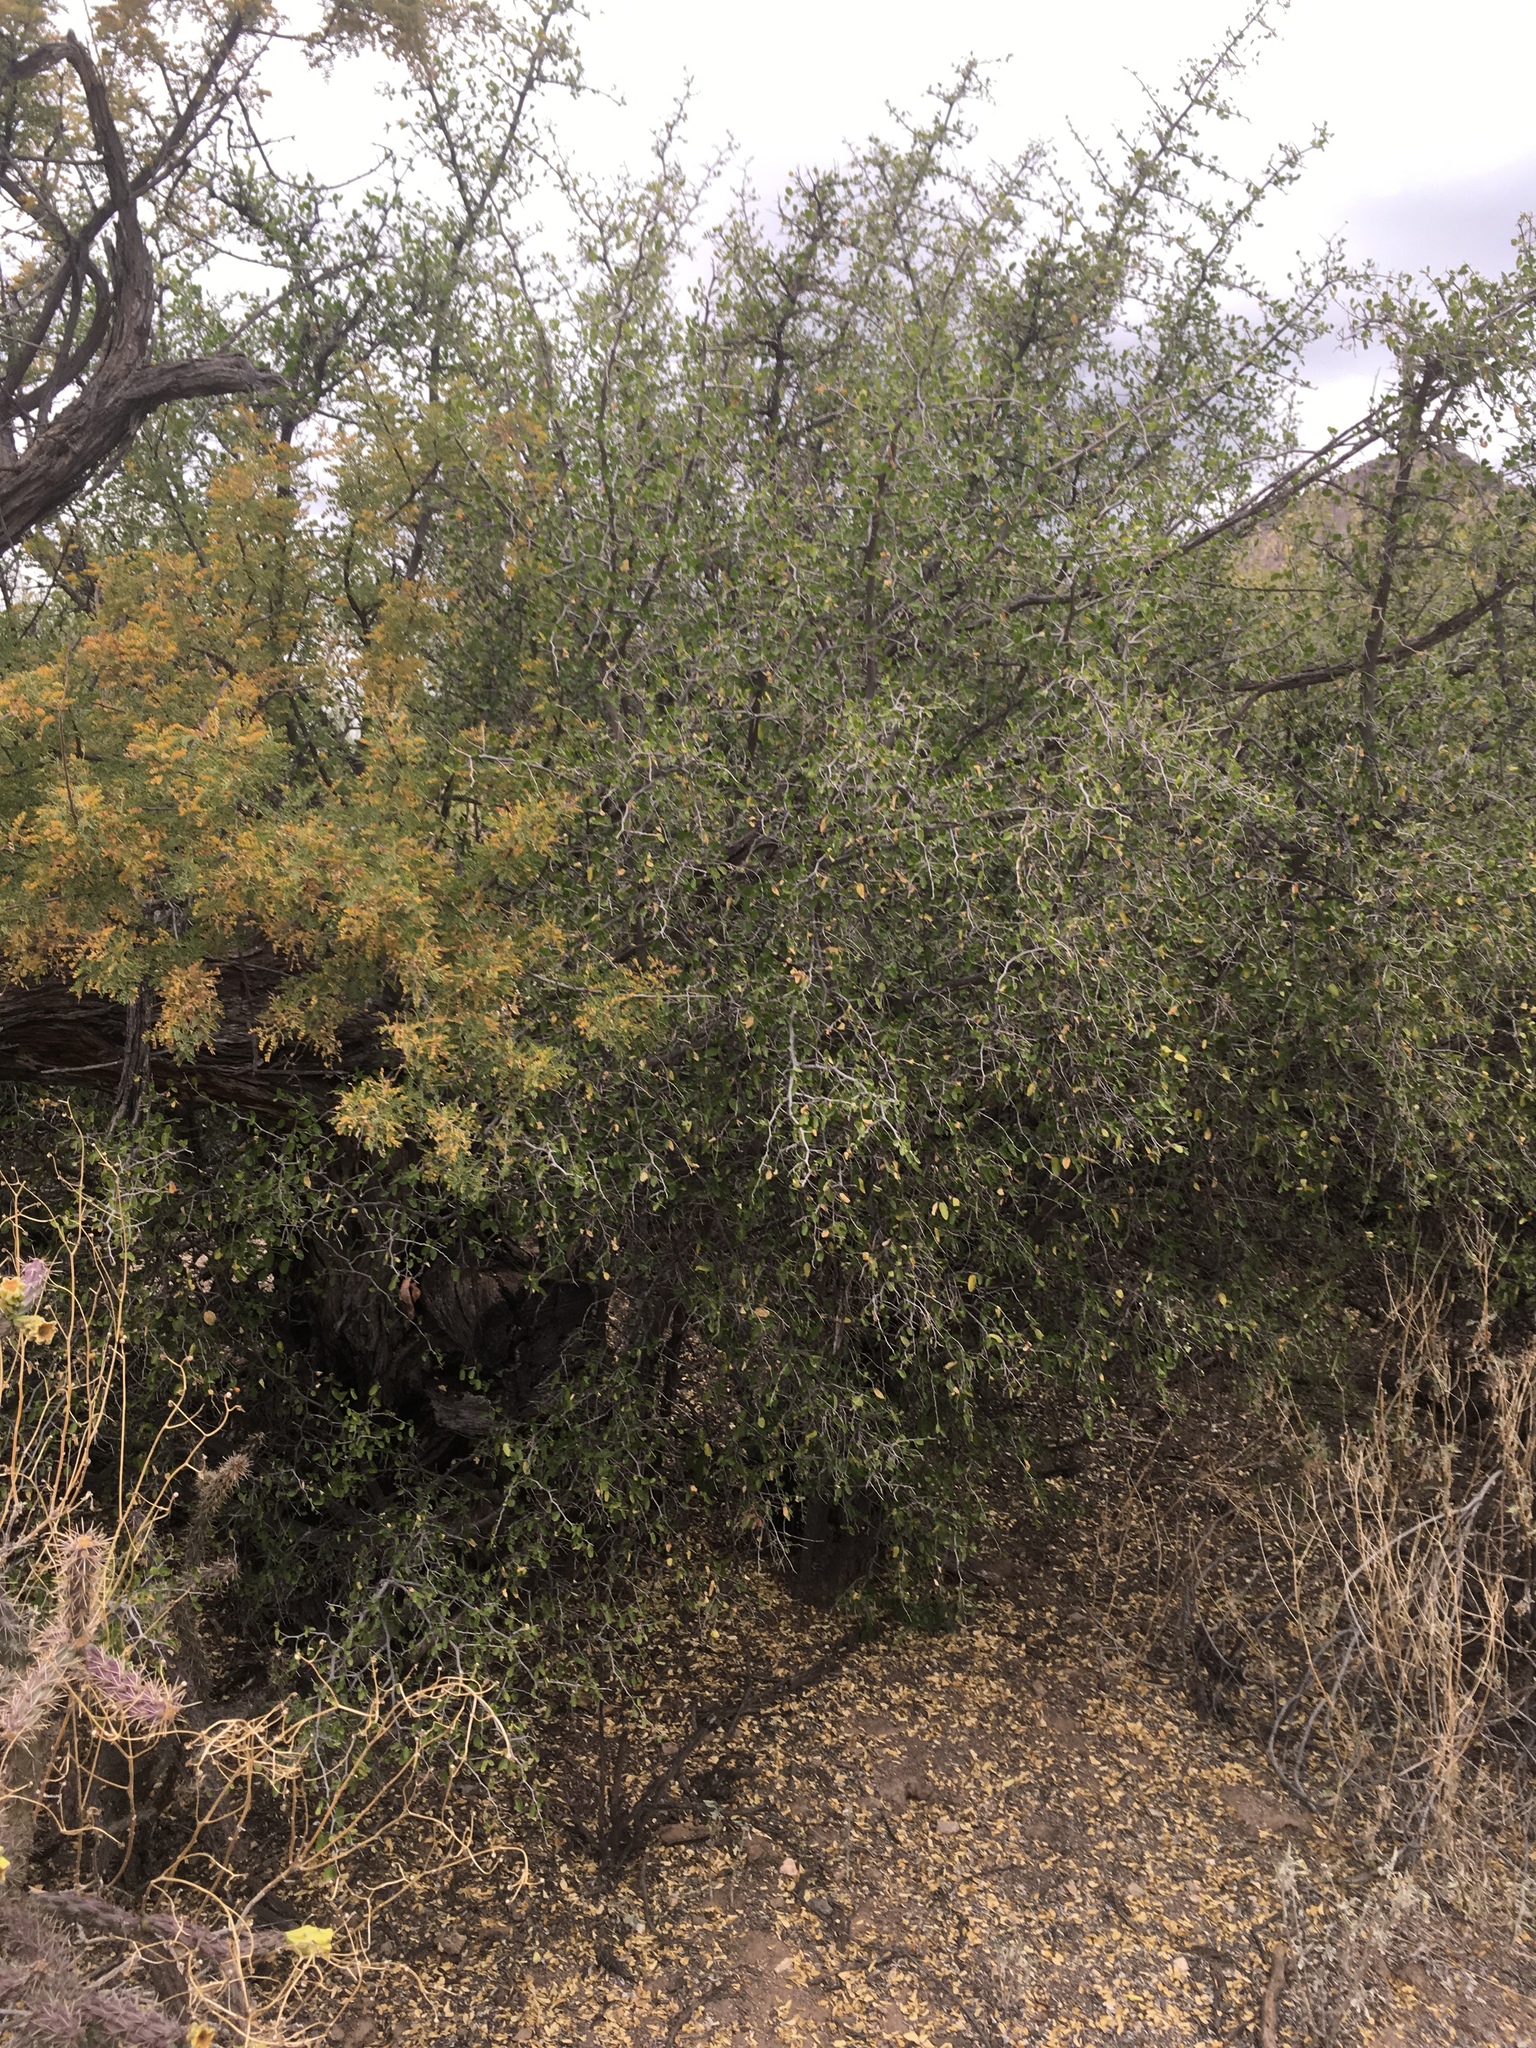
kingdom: Plantae
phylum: Tracheophyta
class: Magnoliopsida
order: Rosales
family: Cannabaceae
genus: Celtis
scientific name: Celtis pallida
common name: Desert hackberry
